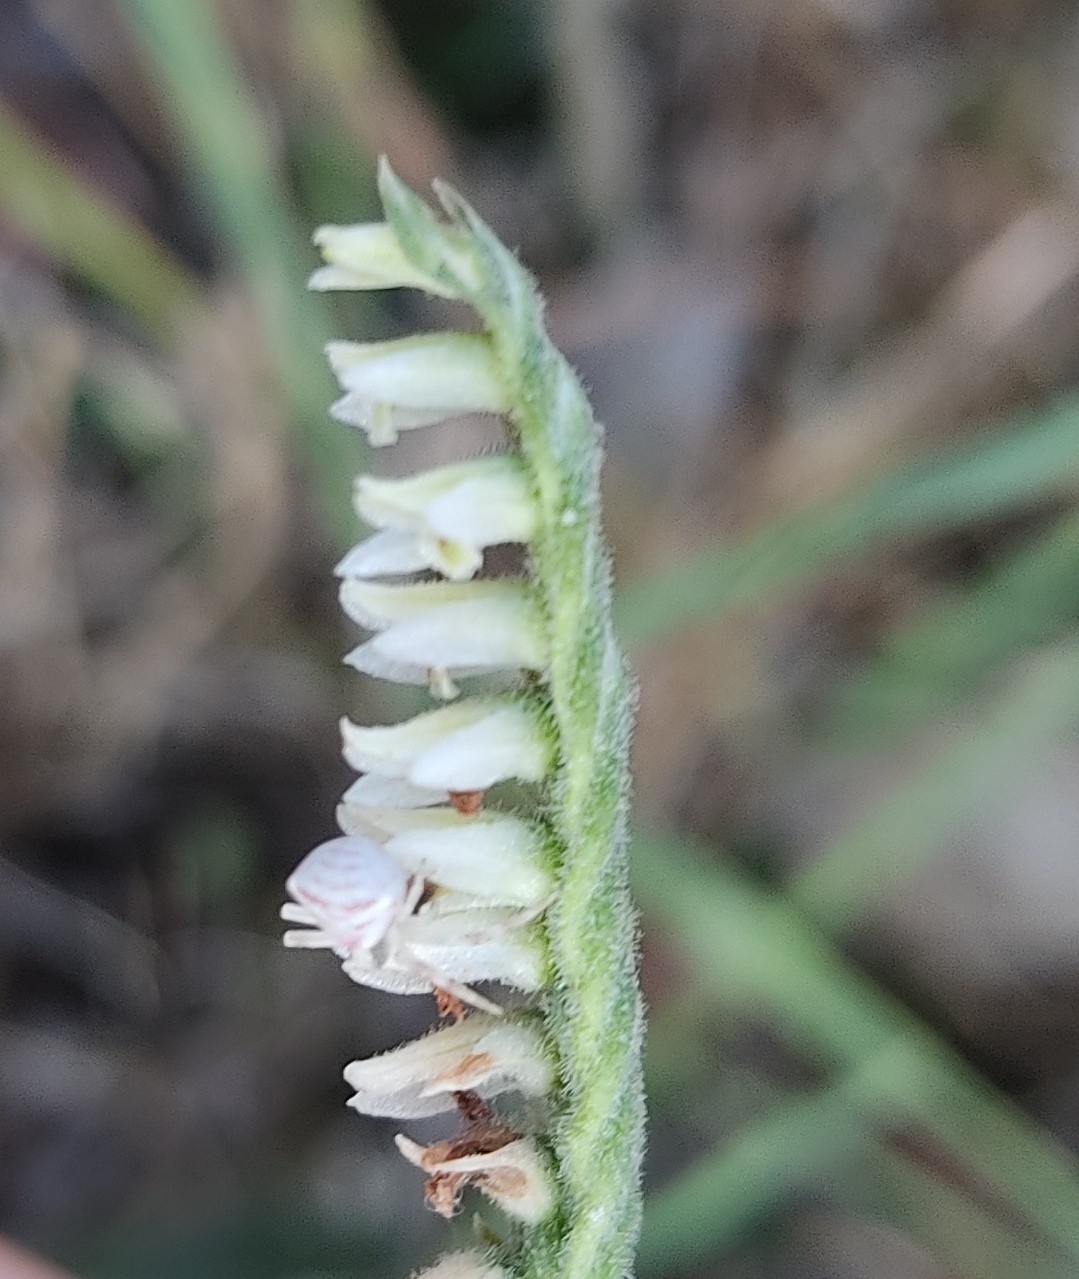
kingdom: Animalia
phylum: Arthropoda
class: Arachnida
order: Araneae
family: Thomisidae
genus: Thomisus
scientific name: Thomisus onustus
